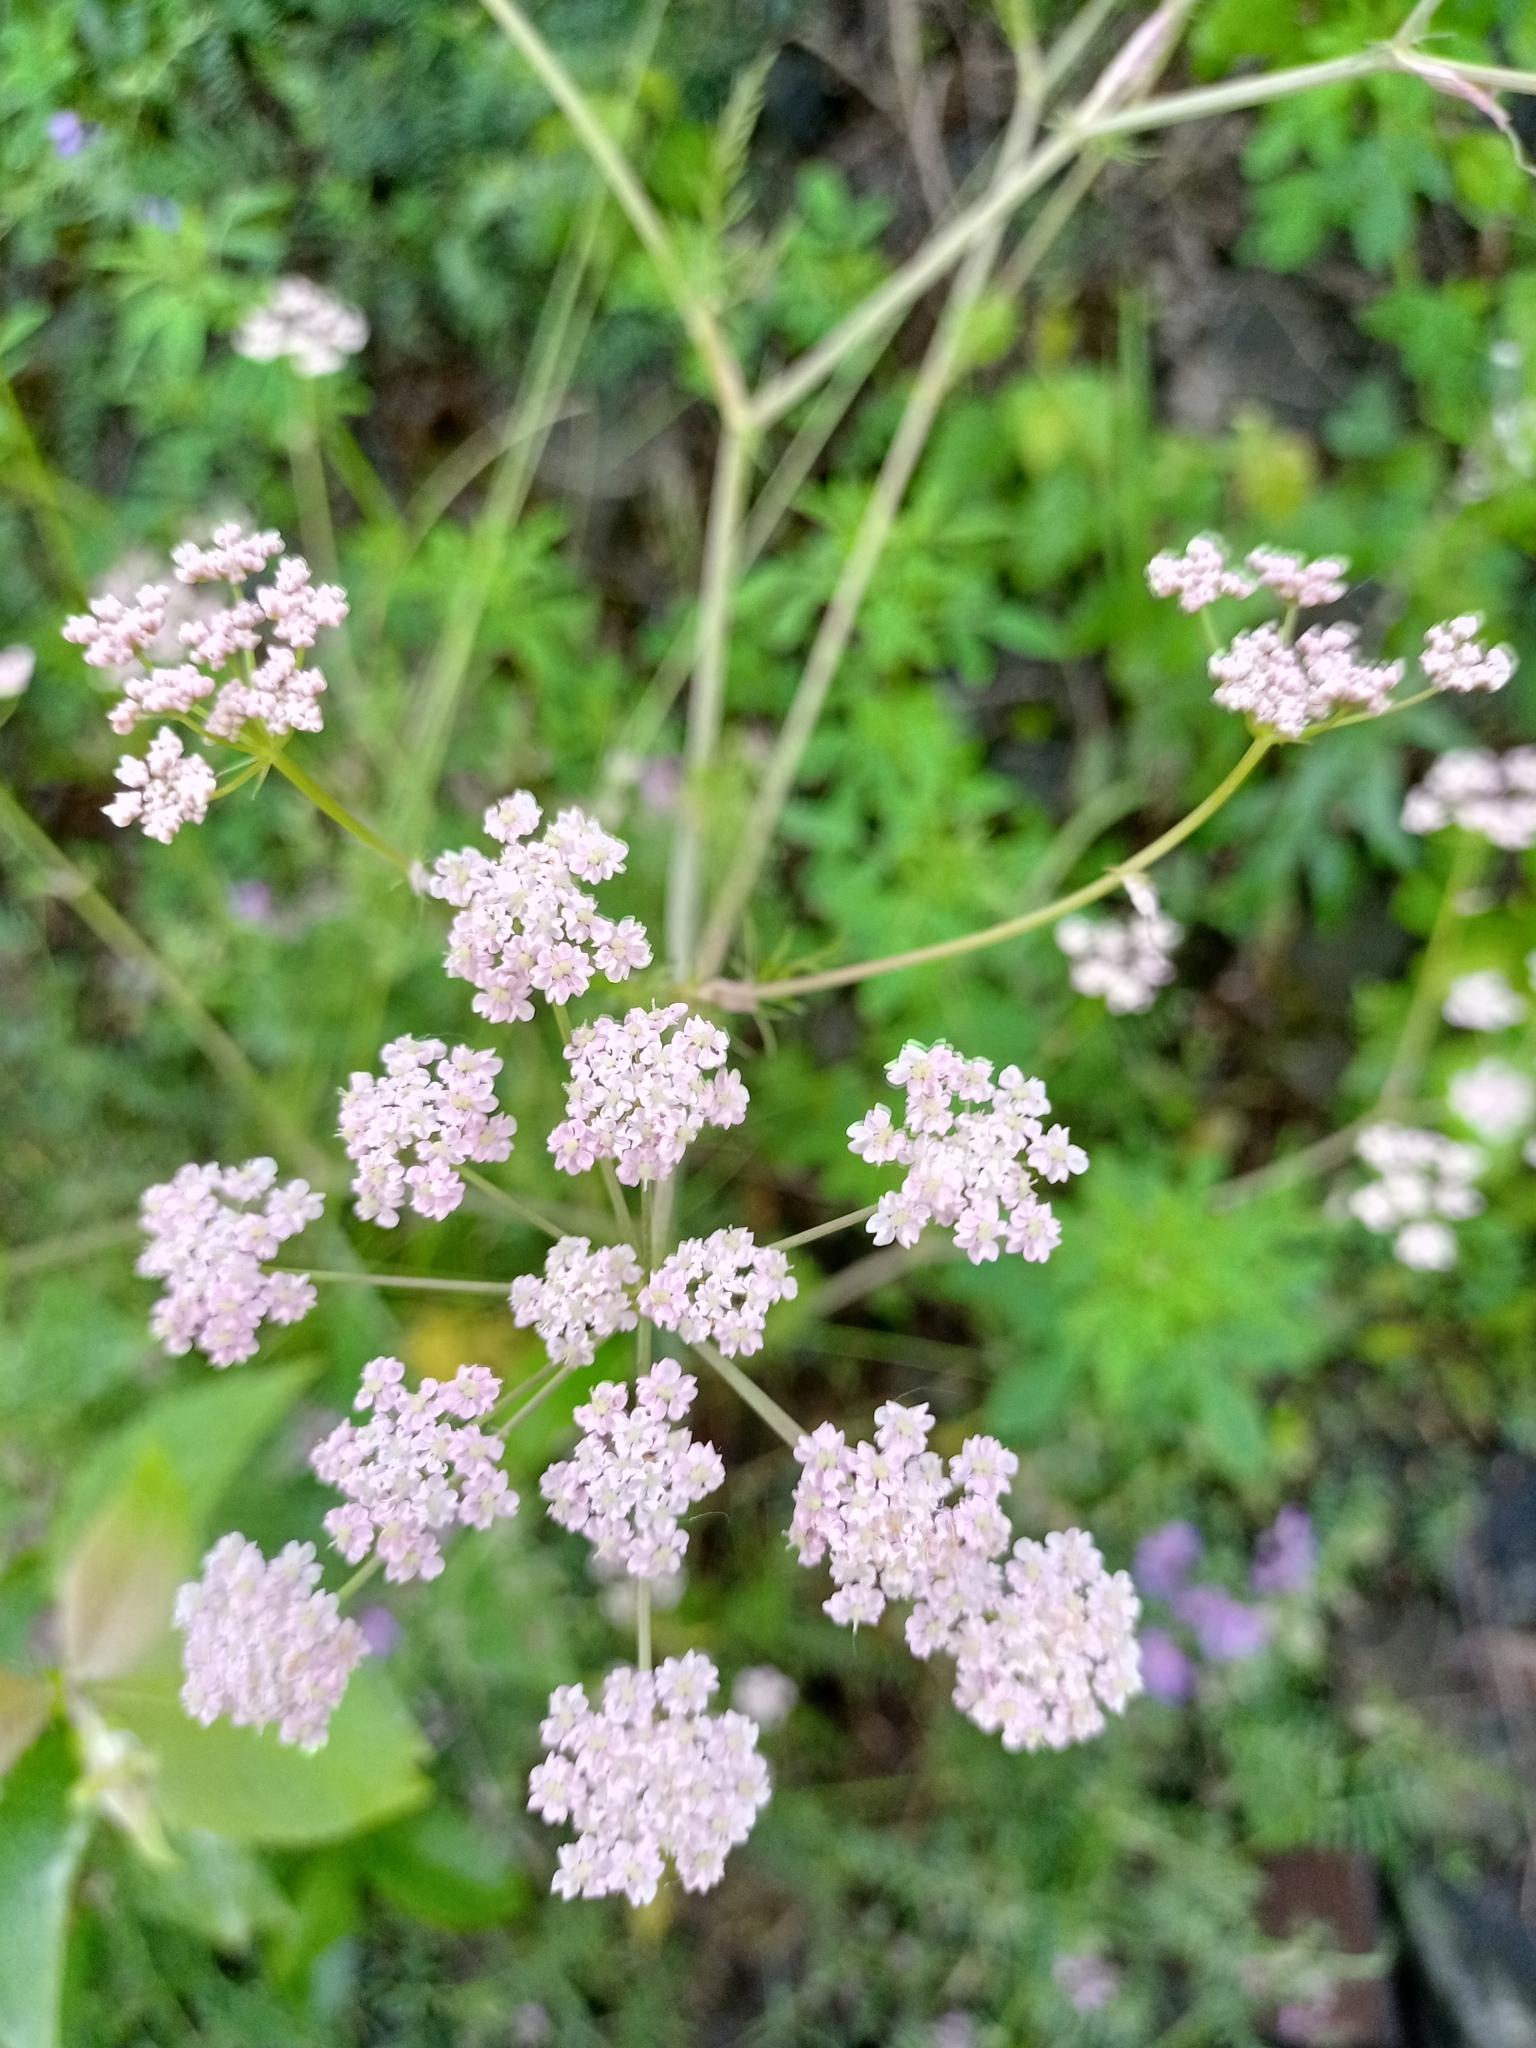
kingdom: Plantae
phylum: Tracheophyta
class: Magnoliopsida
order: Apiales
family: Apiaceae
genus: Carum
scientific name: Carum carvi
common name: Caraway
